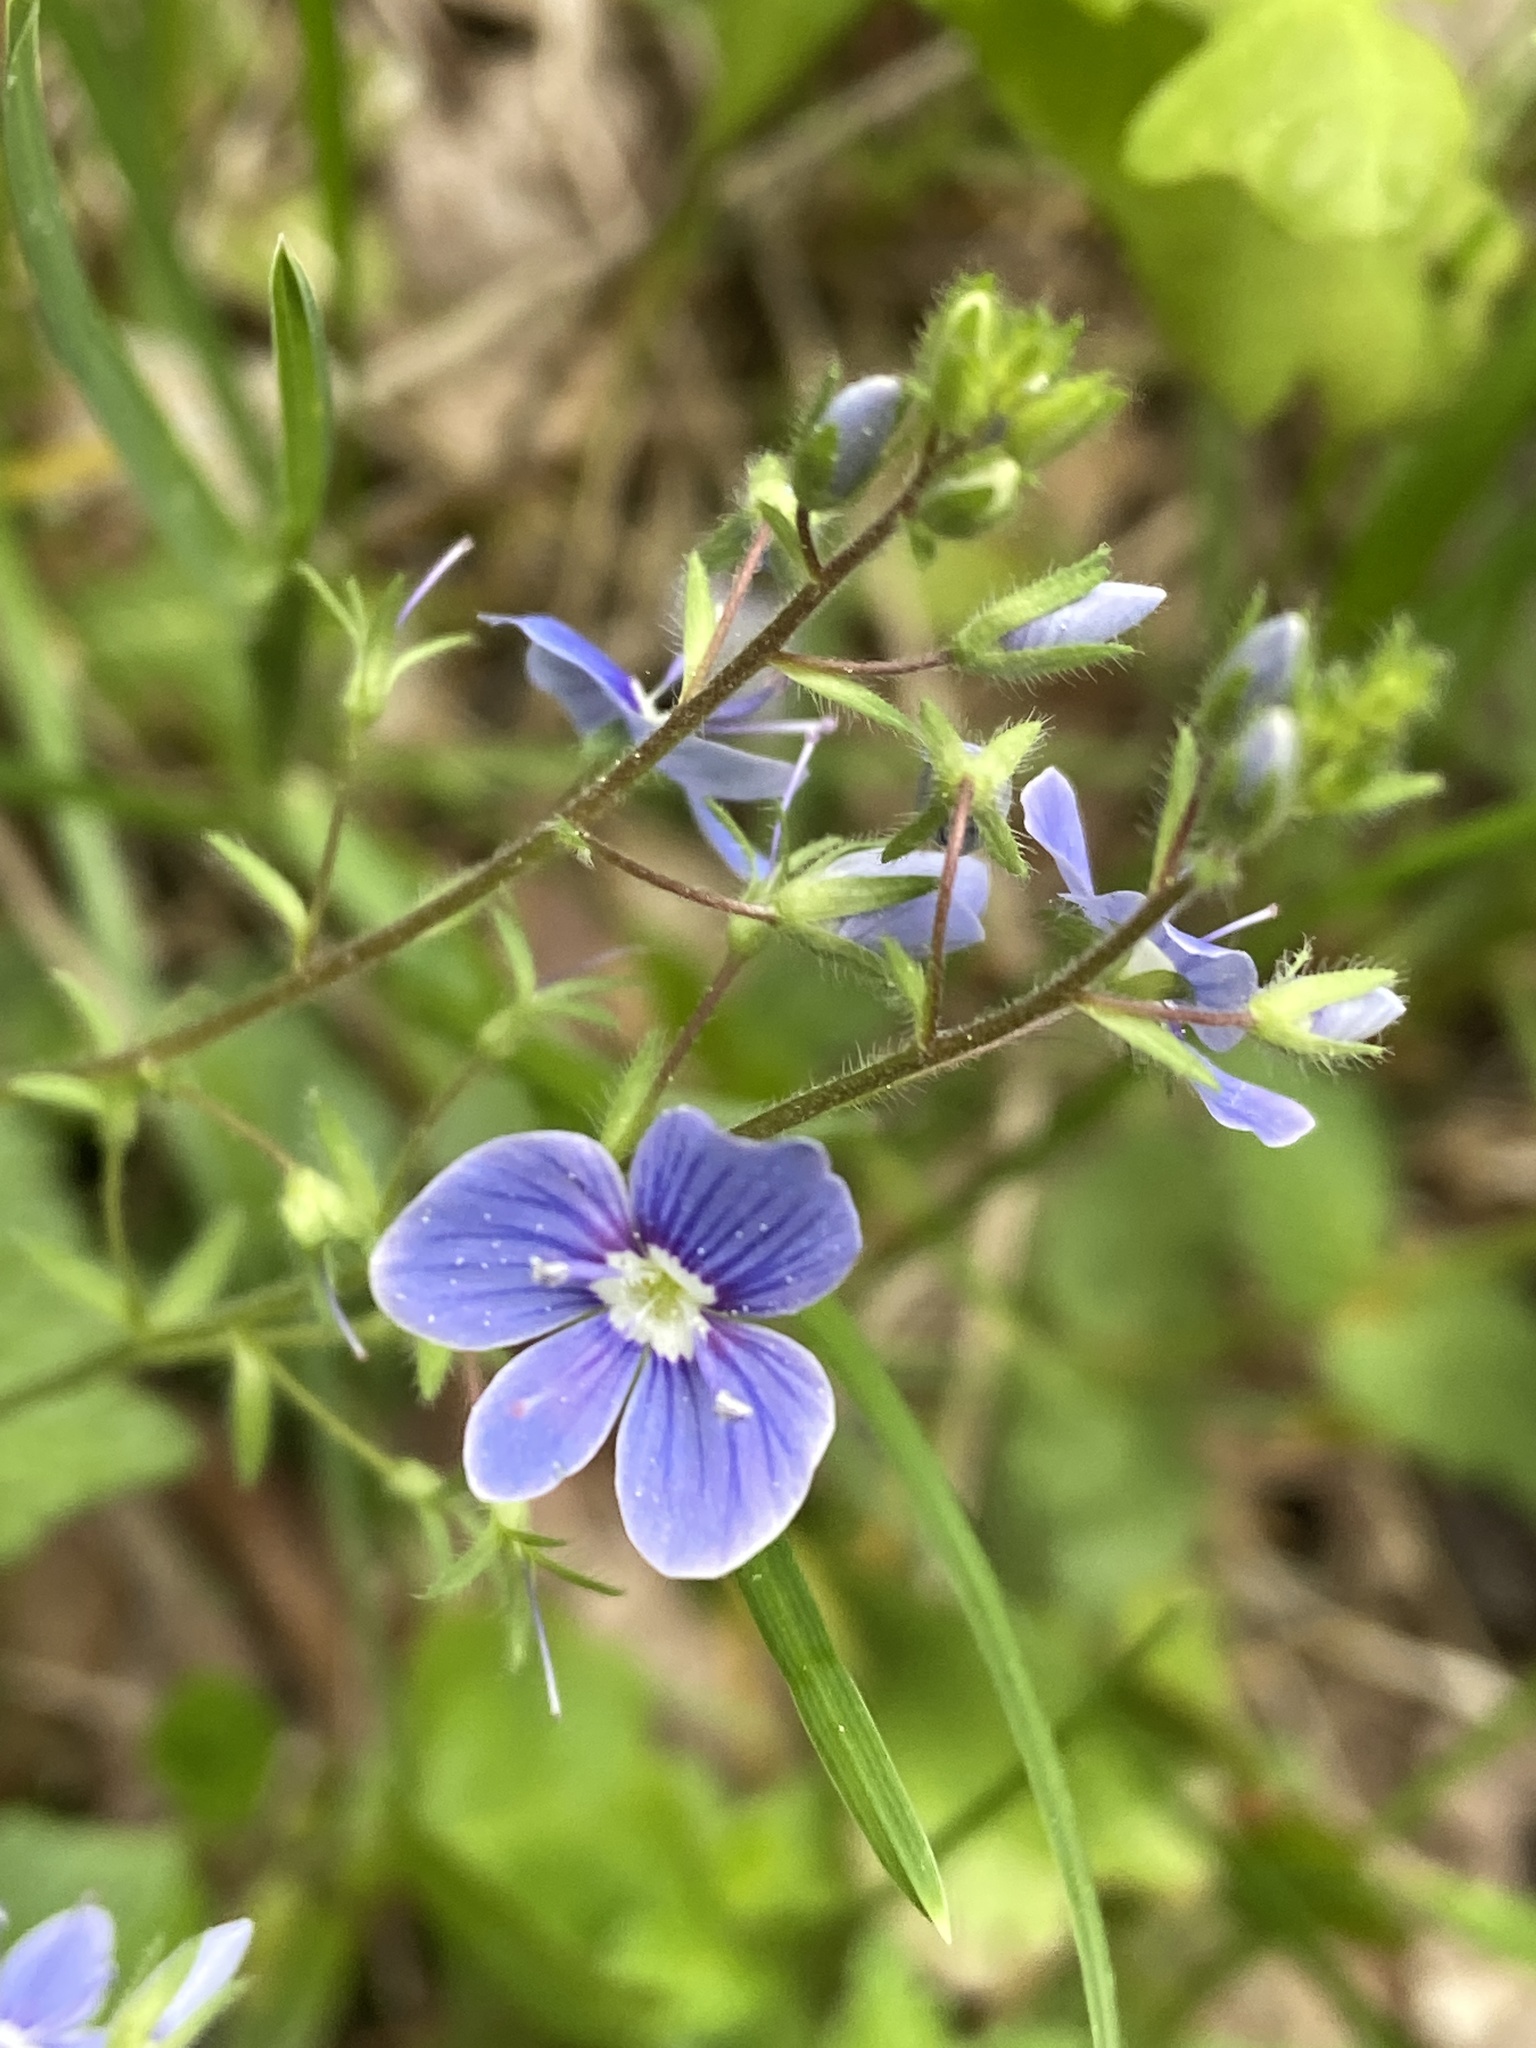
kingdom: Plantae
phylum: Tracheophyta
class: Magnoliopsida
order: Lamiales
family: Plantaginaceae
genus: Veronica
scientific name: Veronica chamaedrys
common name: Germander speedwell
